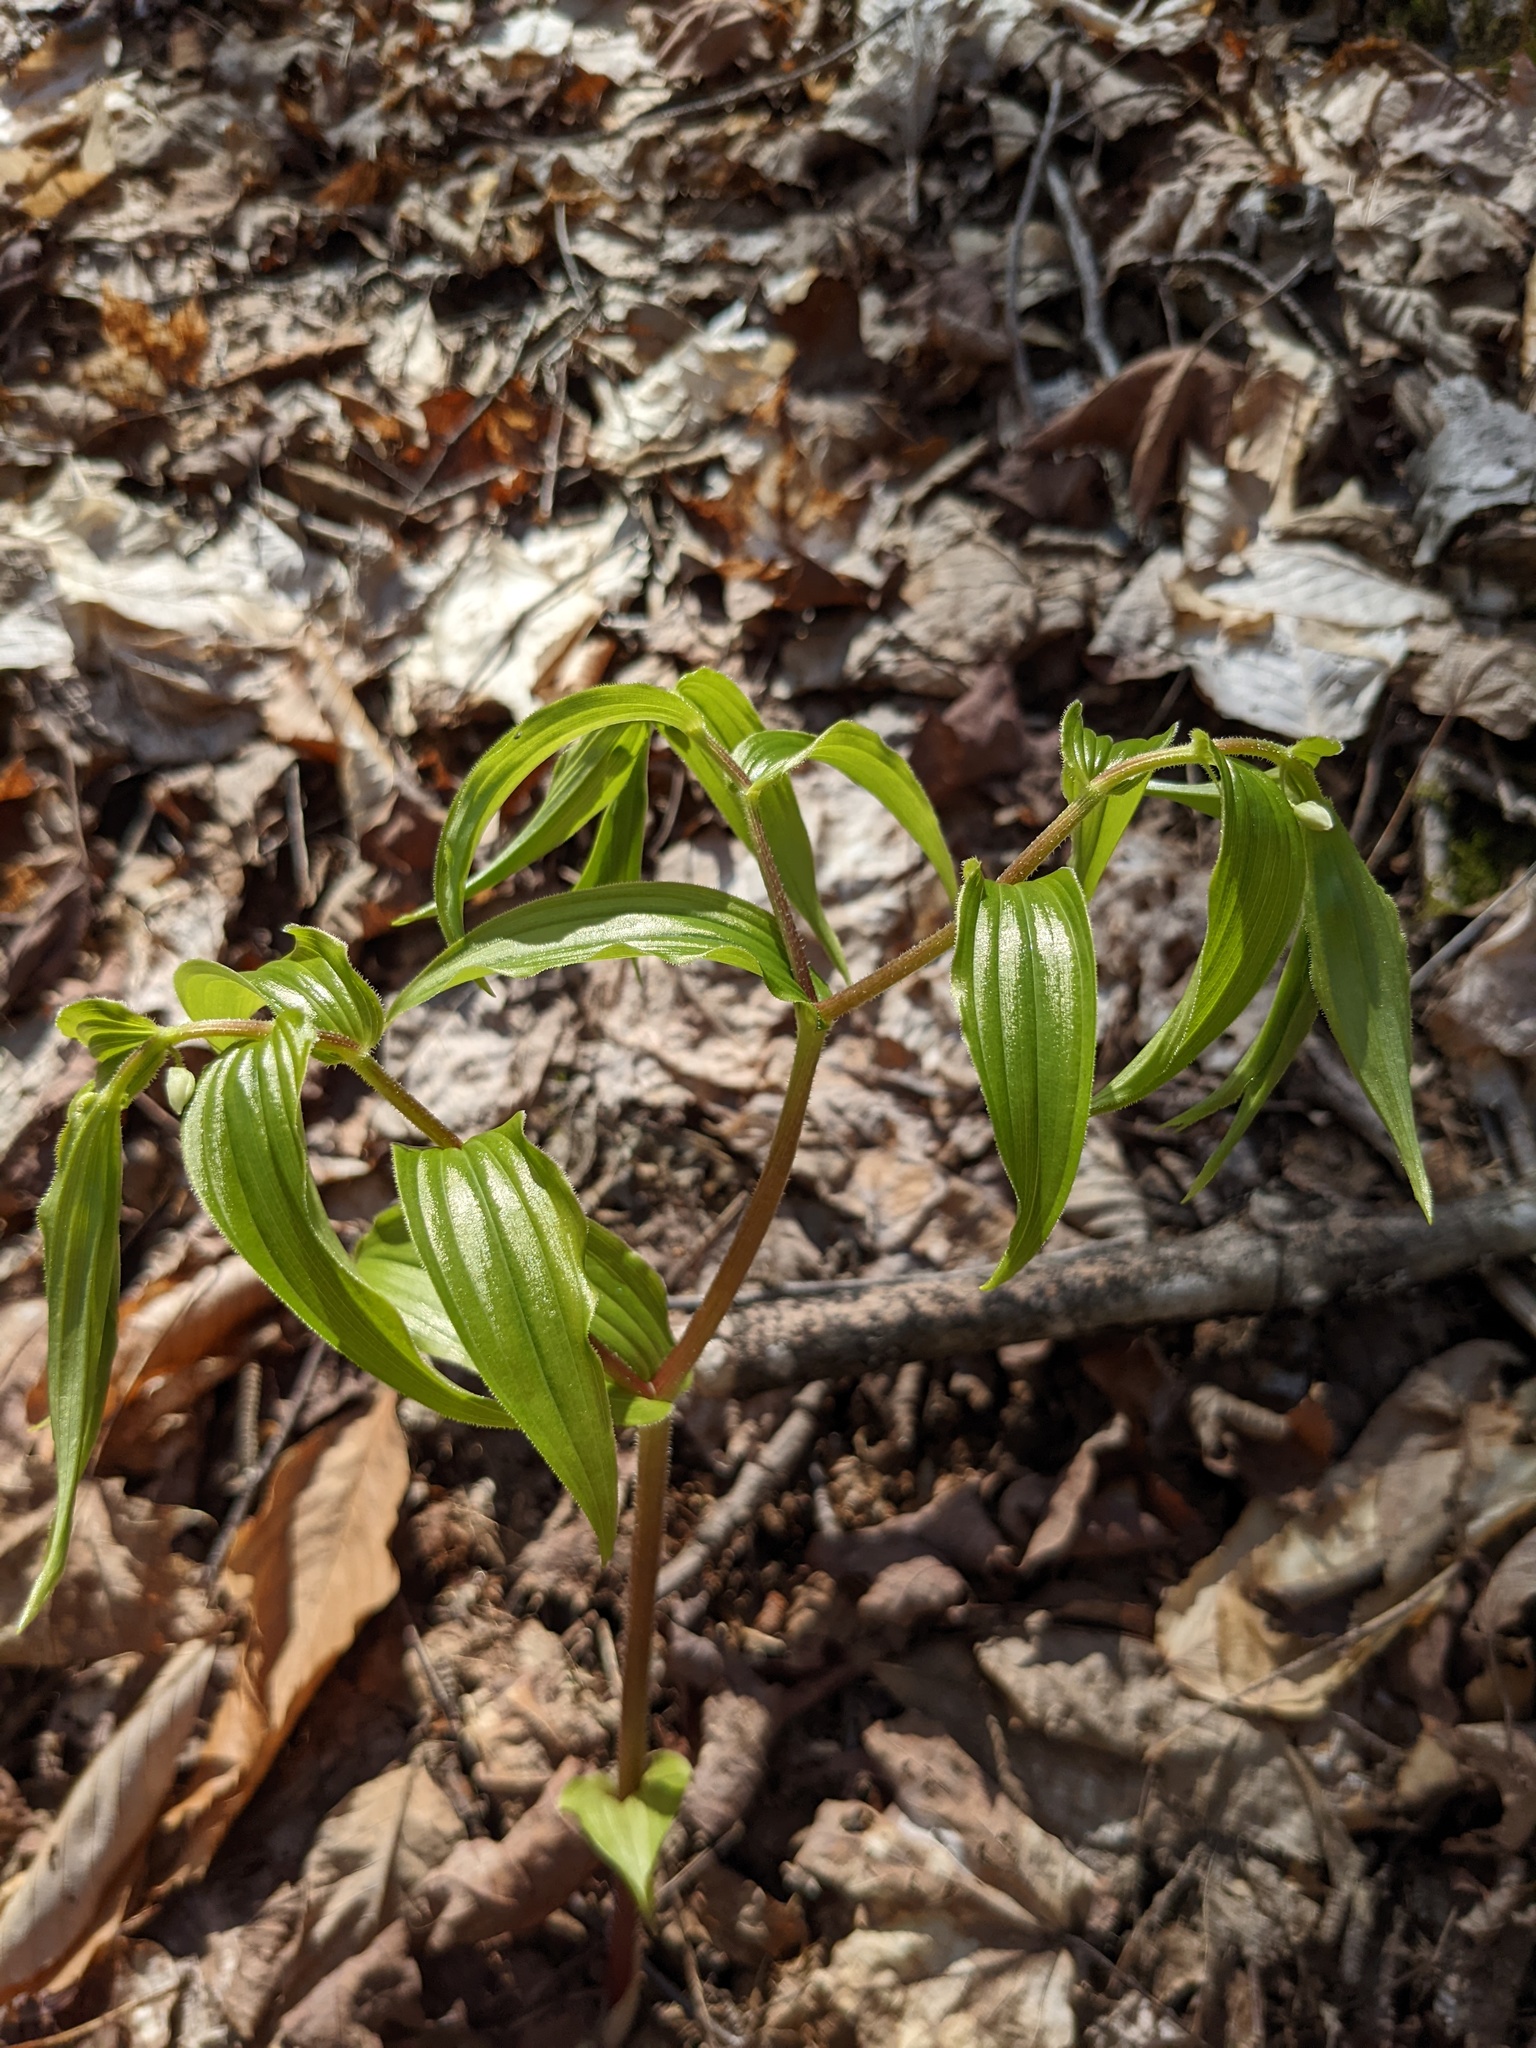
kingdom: Plantae
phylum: Tracheophyta
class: Liliopsida
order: Liliales
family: Liliaceae
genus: Streptopus
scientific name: Streptopus lanceolatus
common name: Rose mandarin
